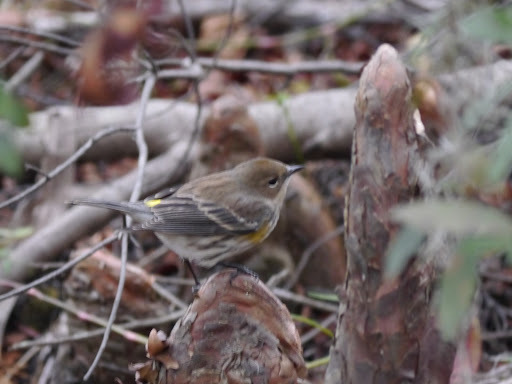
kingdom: Animalia
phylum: Chordata
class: Aves
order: Passeriformes
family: Parulidae
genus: Setophaga
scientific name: Setophaga coronata
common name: Myrtle warbler
